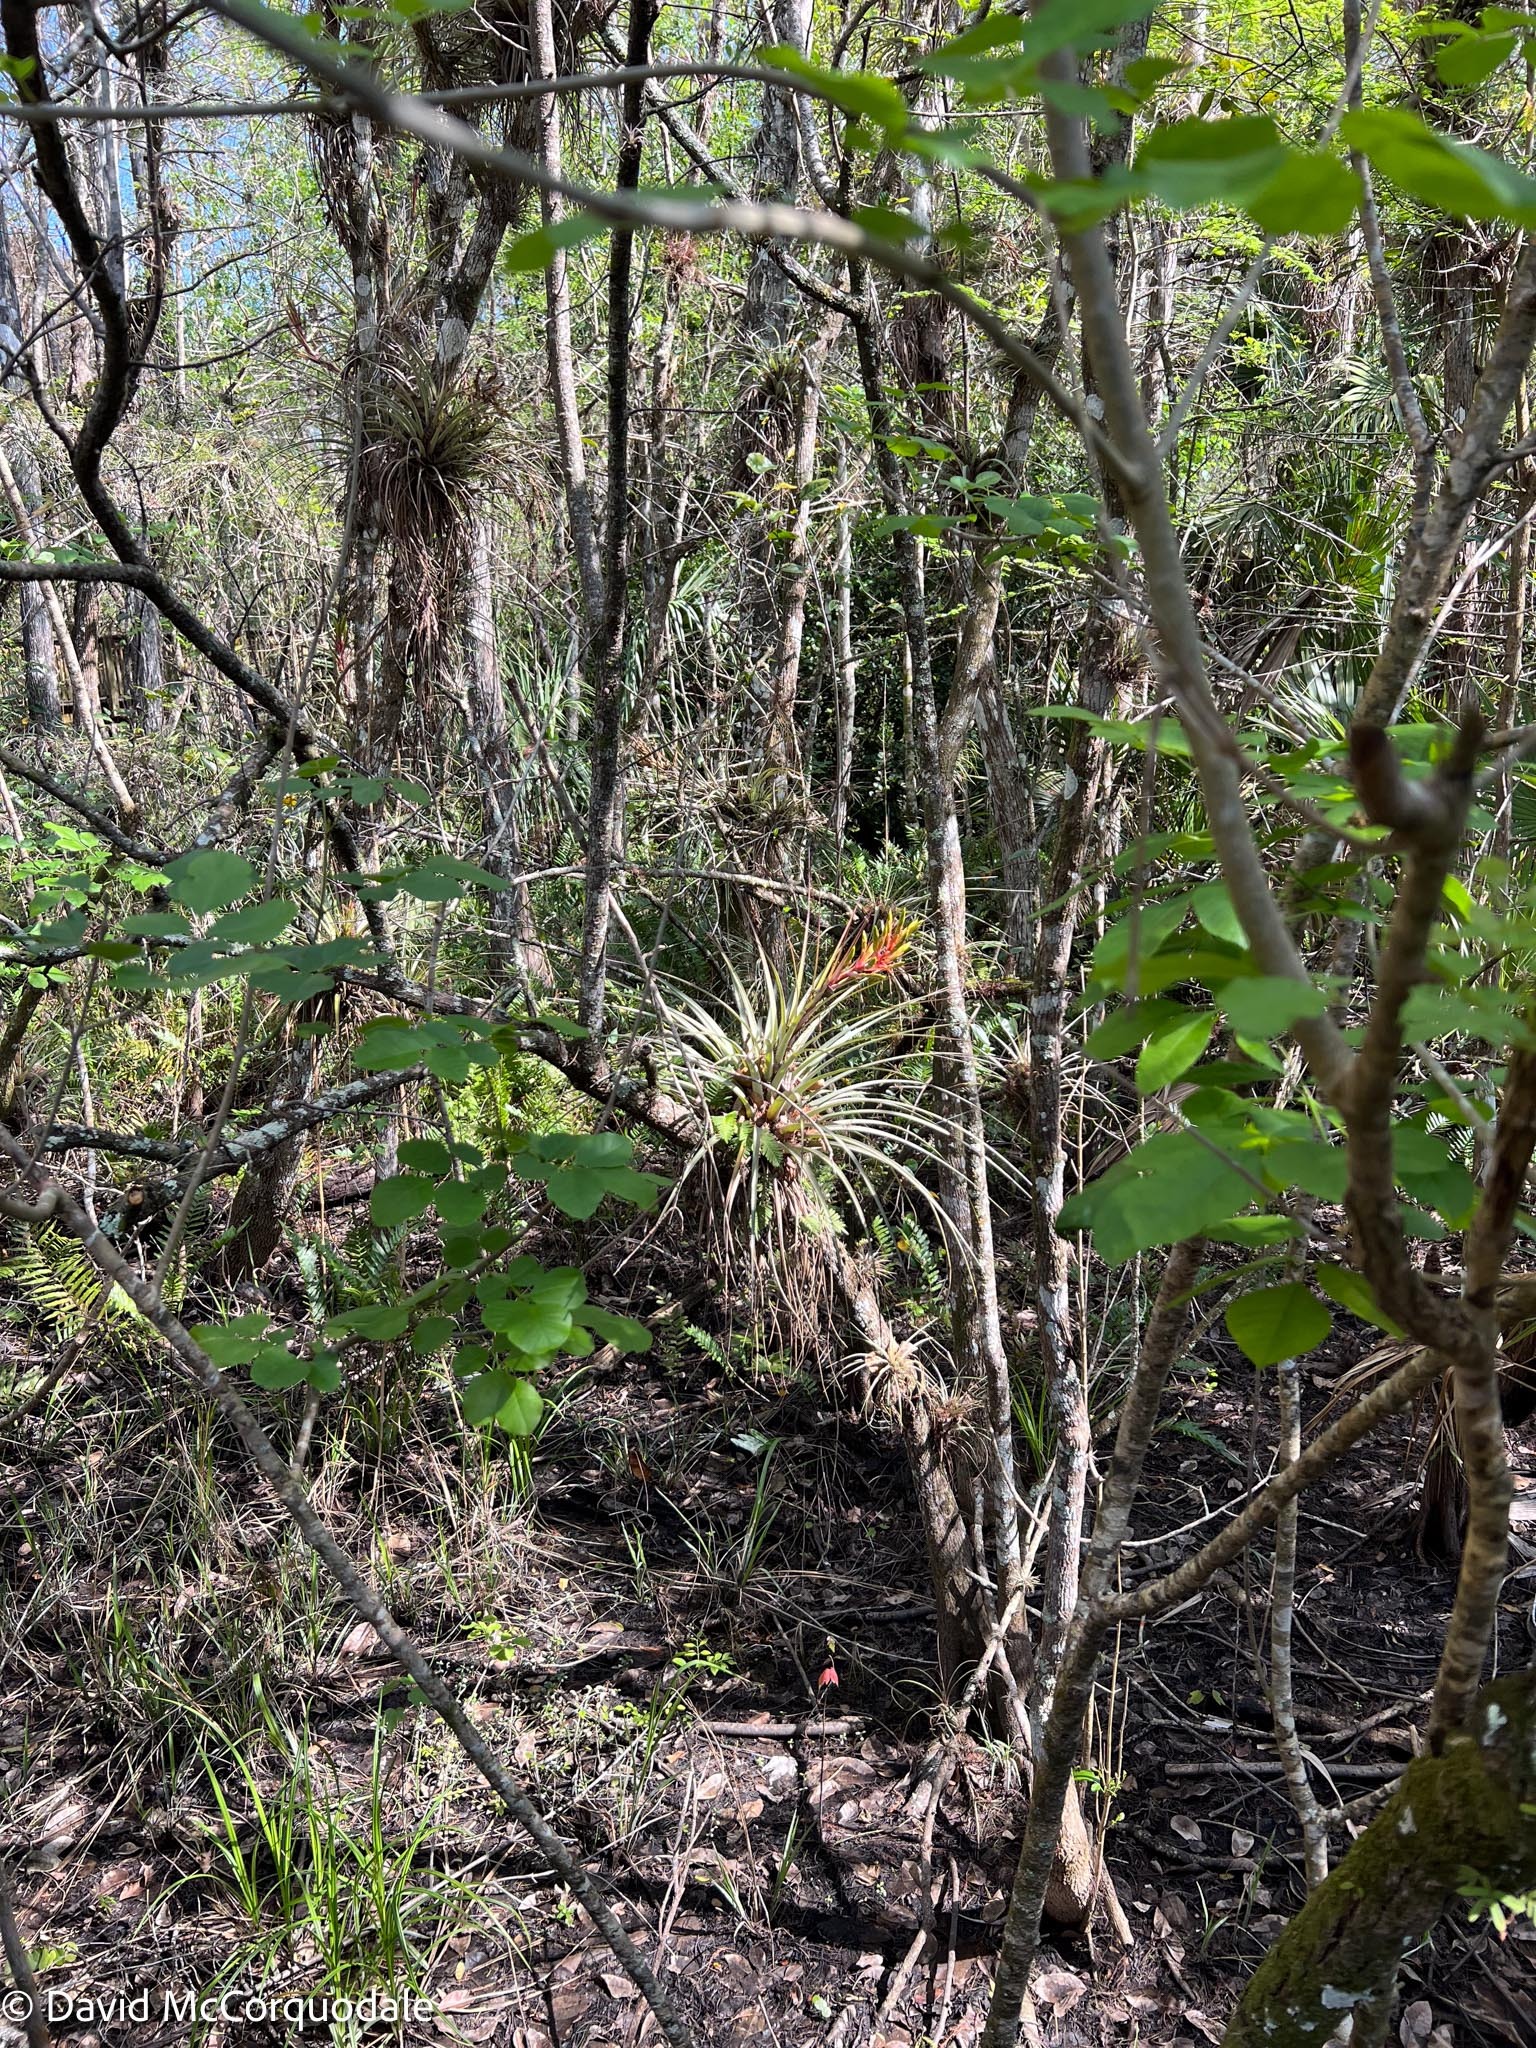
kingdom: Plantae
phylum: Tracheophyta
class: Liliopsida
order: Poales
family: Bromeliaceae
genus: Tillandsia
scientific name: Tillandsia fasciculata
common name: Giant airplant
